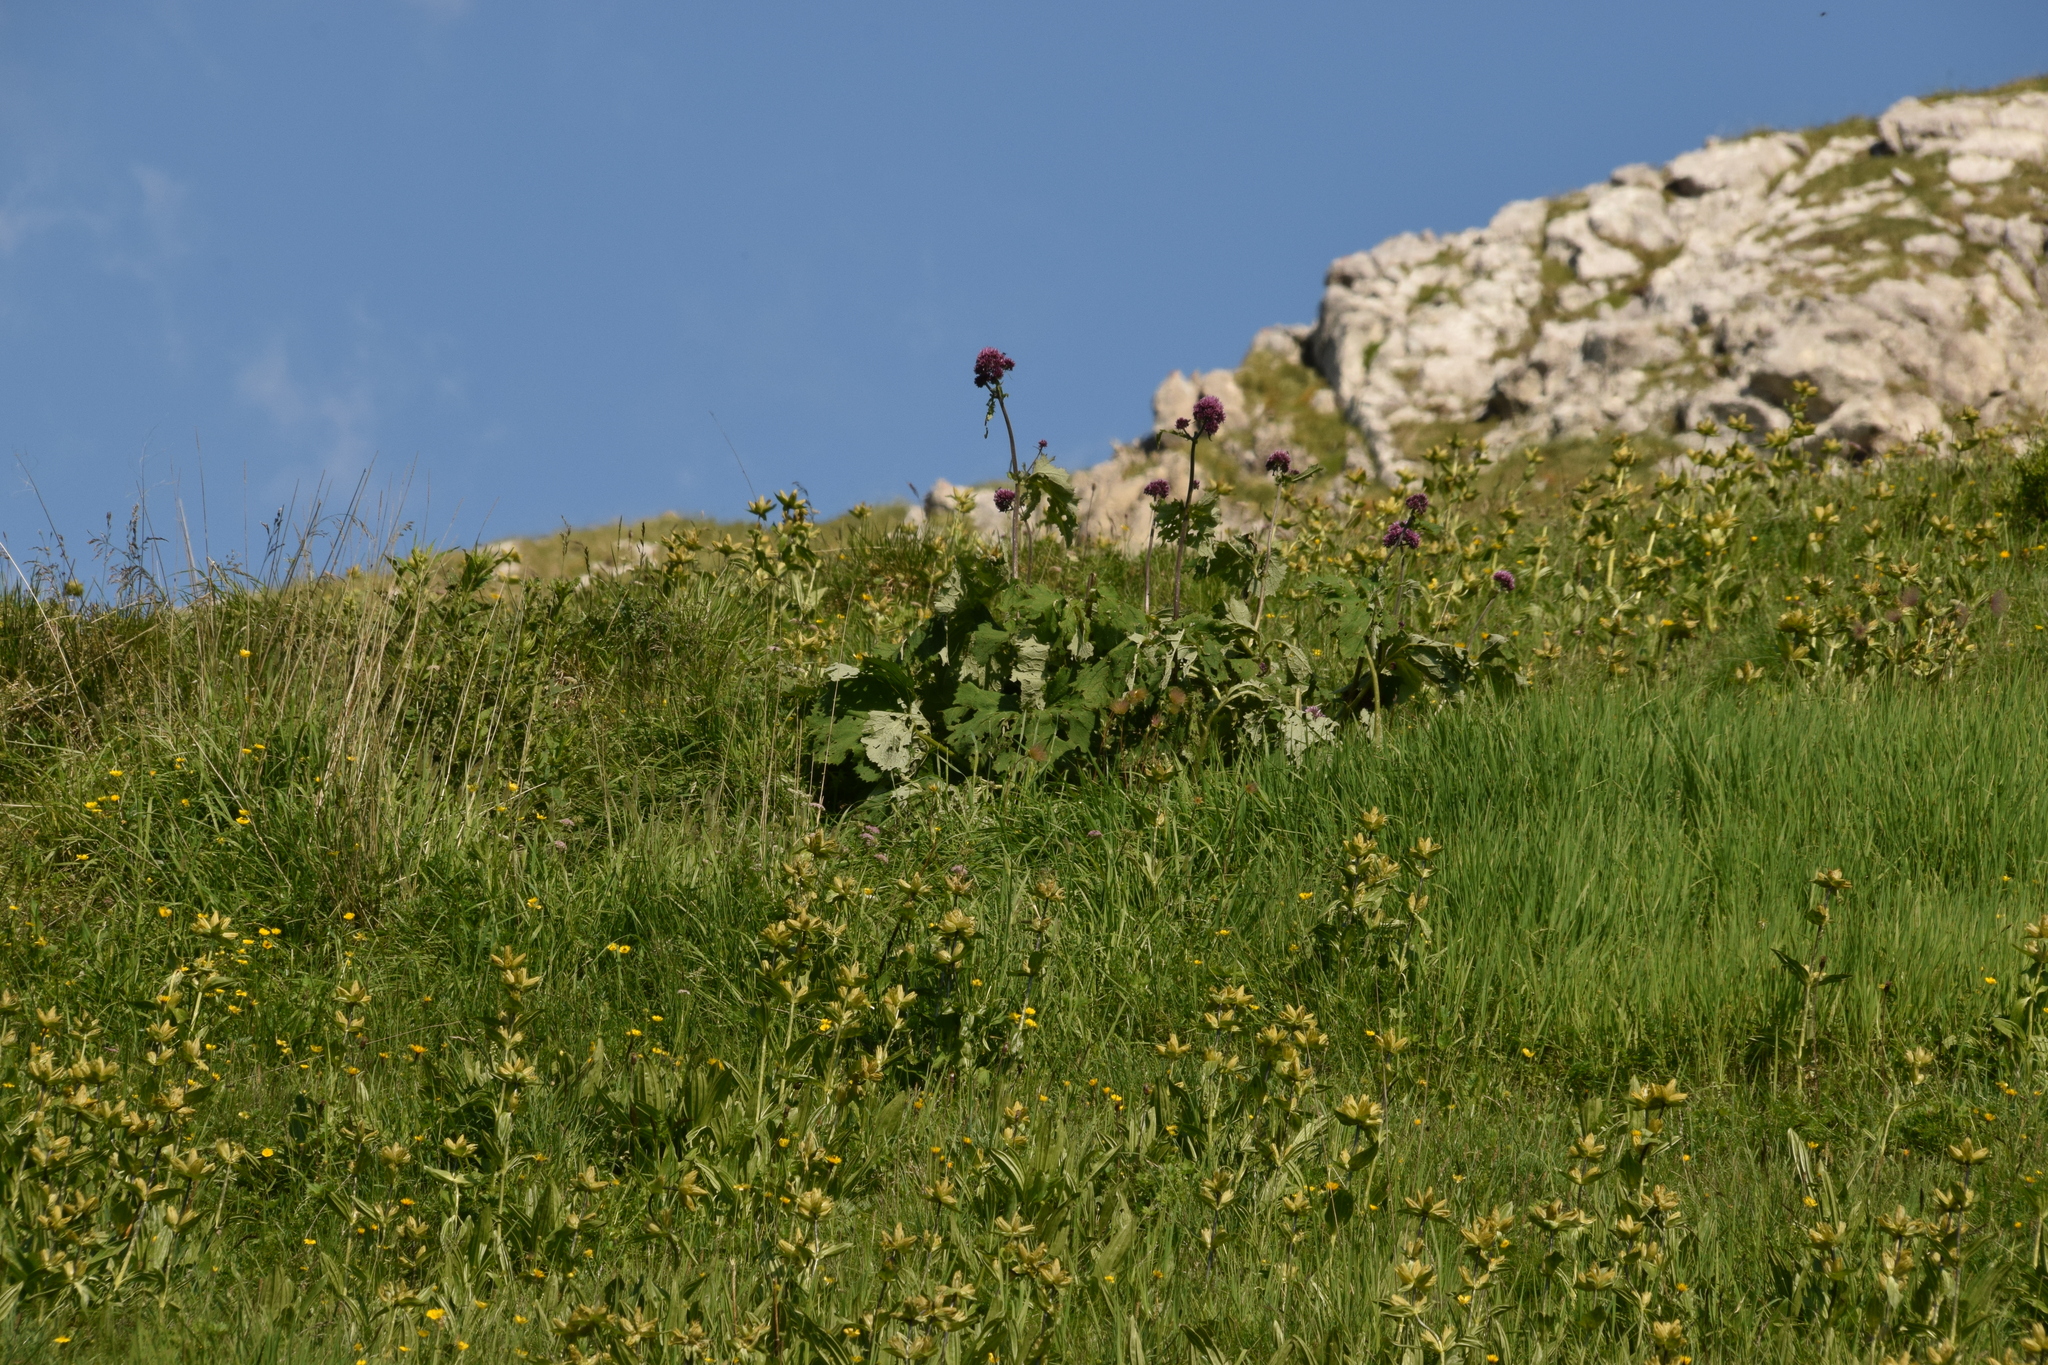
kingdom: Plantae
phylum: Tracheophyta
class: Magnoliopsida
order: Asterales
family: Asteraceae
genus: Adenostyles
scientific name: Adenostyles alliariae
